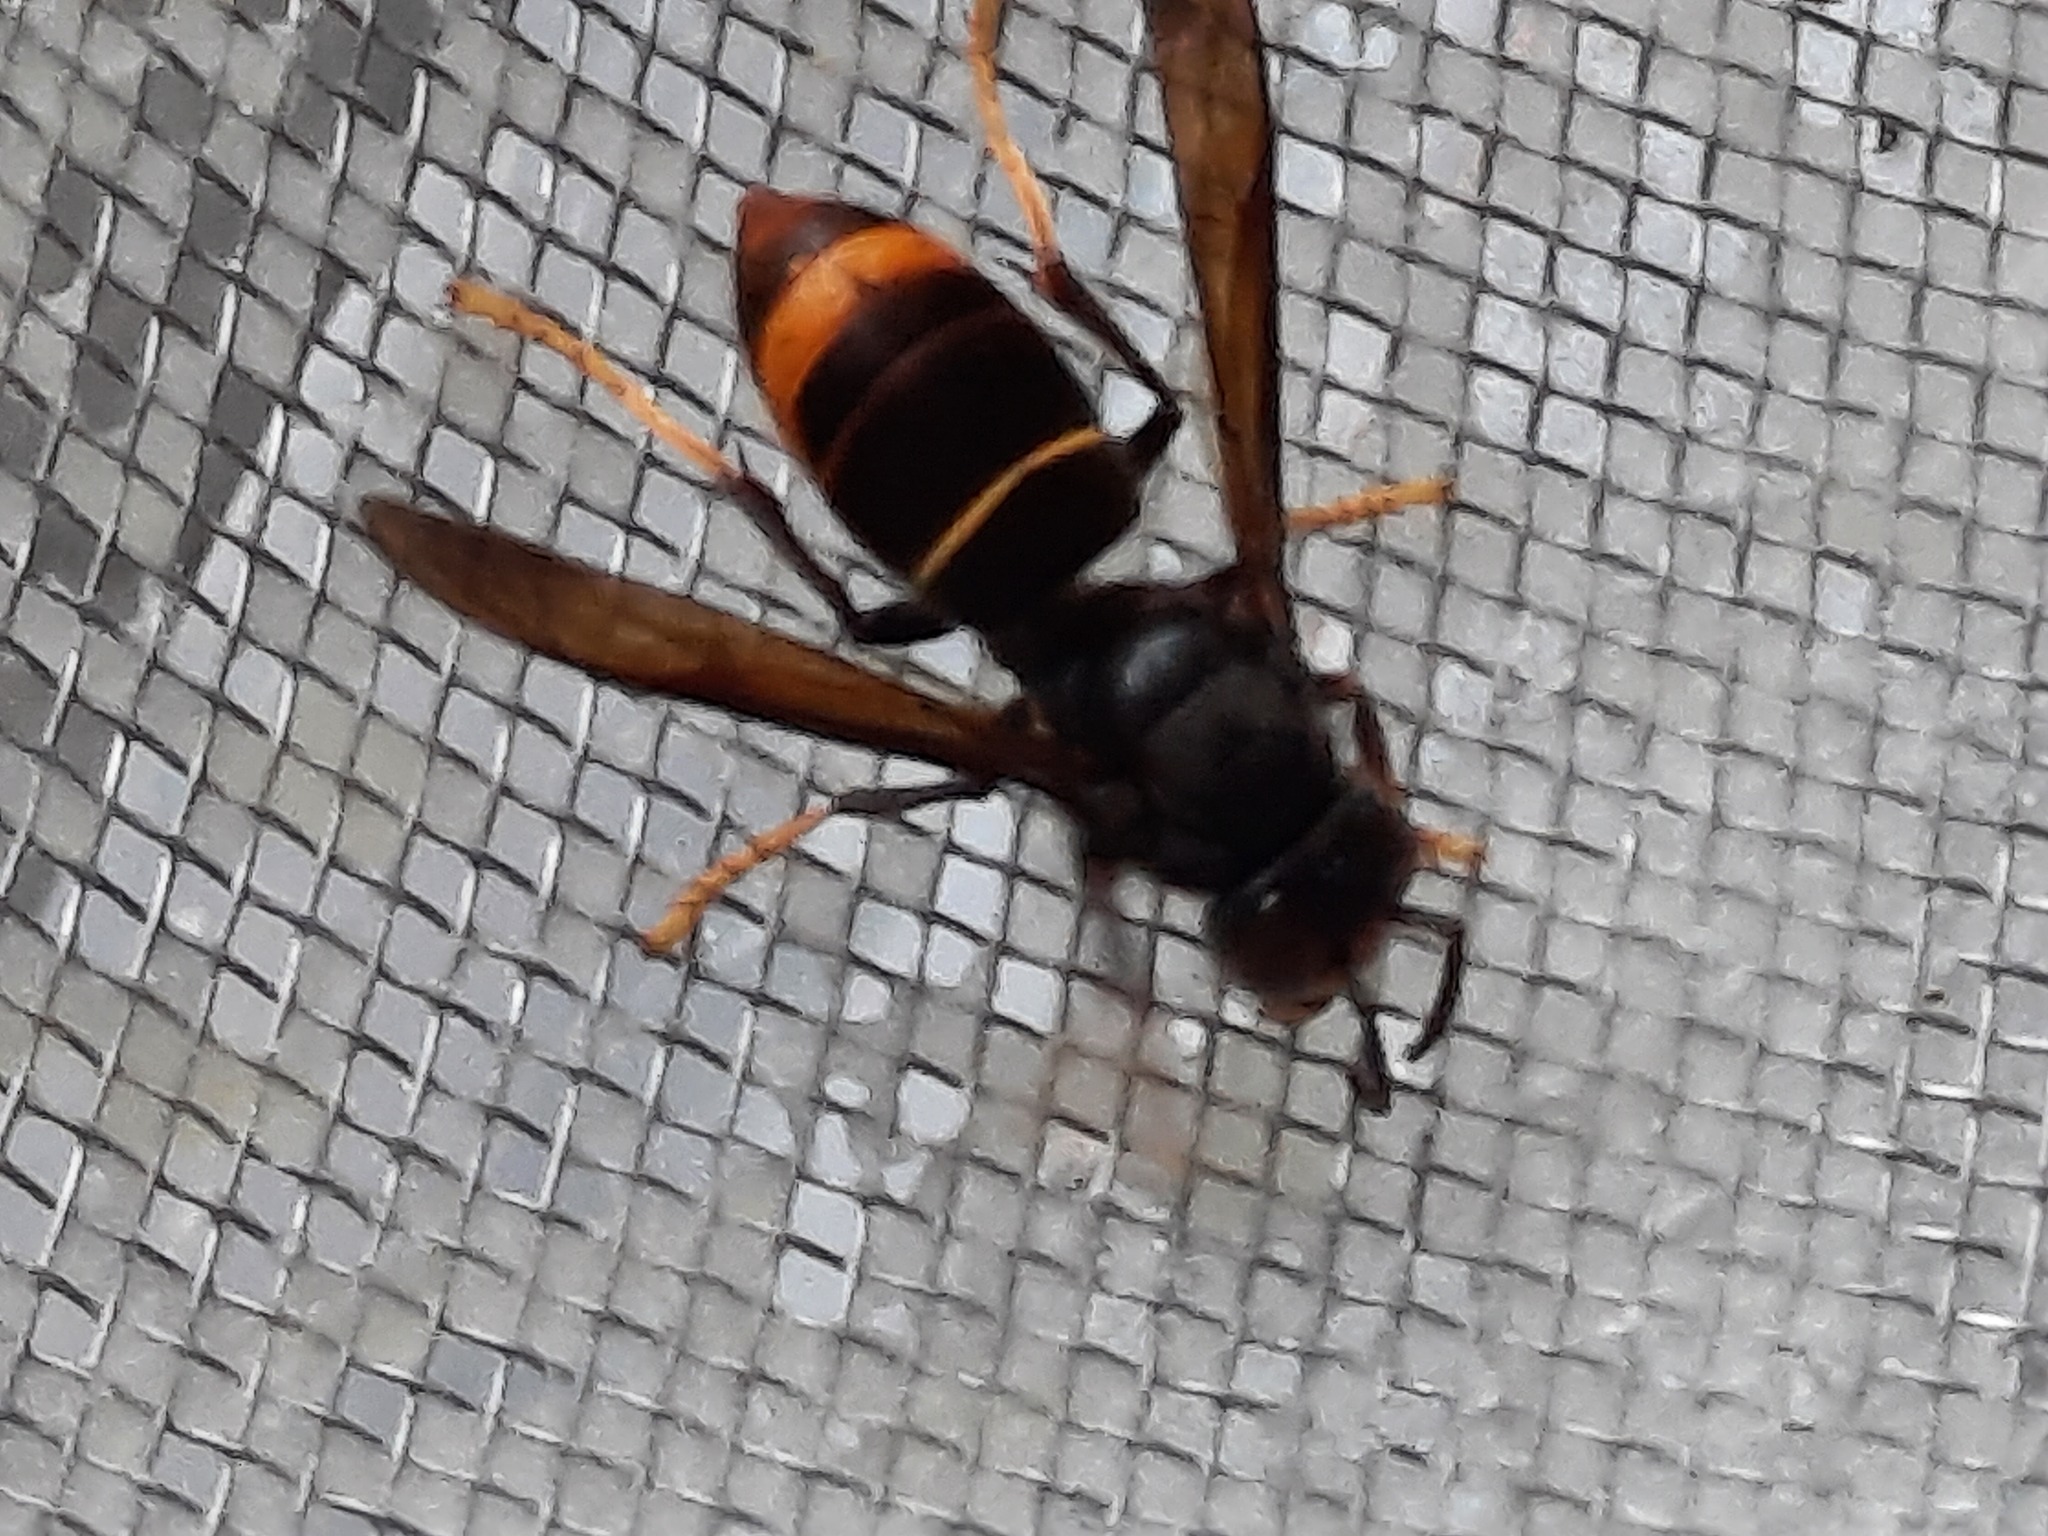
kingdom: Animalia
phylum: Arthropoda
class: Insecta
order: Hymenoptera
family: Vespidae
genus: Vespa
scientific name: Vespa velutina
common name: Asian hornet
